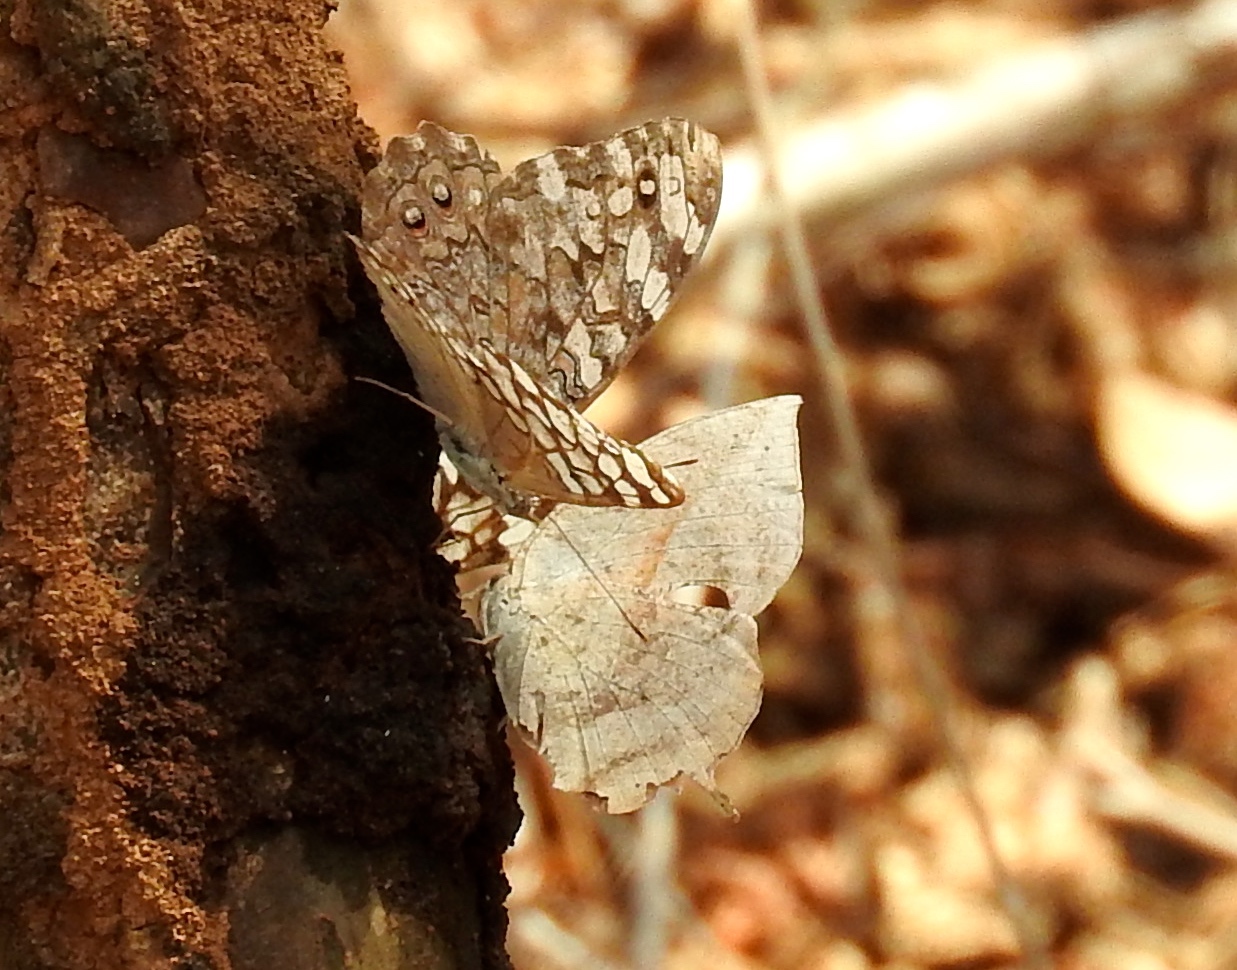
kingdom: Animalia
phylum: Arthropoda
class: Insecta
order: Lepidoptera
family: Nymphalidae
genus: Memphis
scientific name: Memphis forreri
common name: Forrer's leafwing
